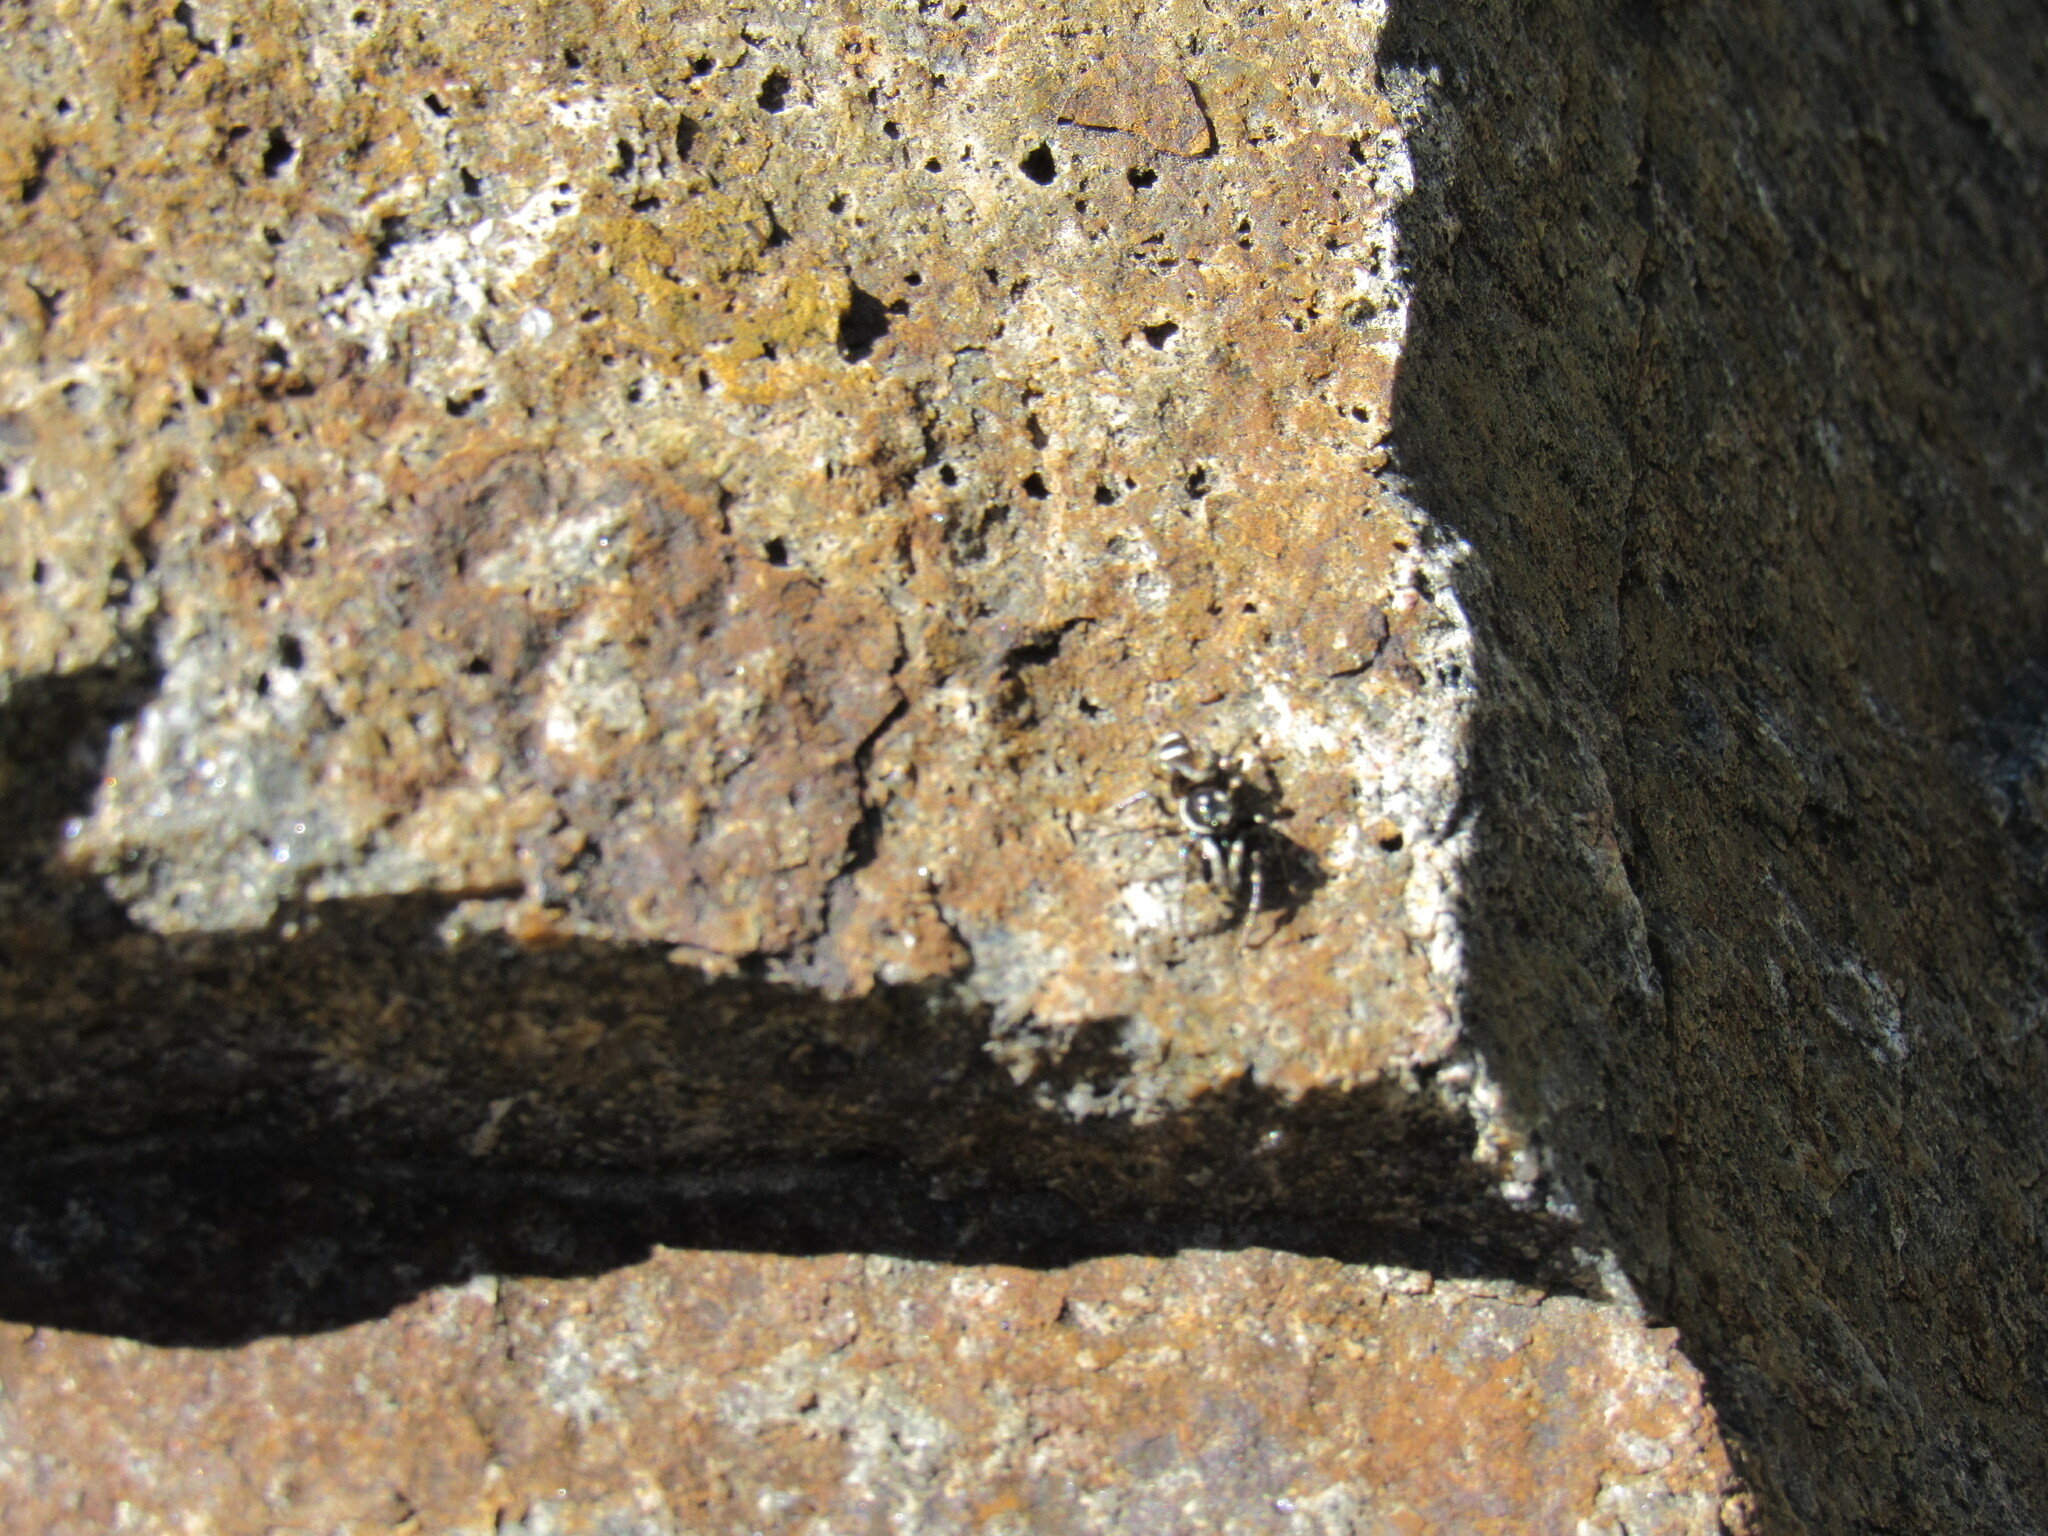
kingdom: Animalia
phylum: Arthropoda
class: Arachnida
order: Araneae
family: Salticidae
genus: Salticus
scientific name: Salticus scenicus
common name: Zebra jumper
